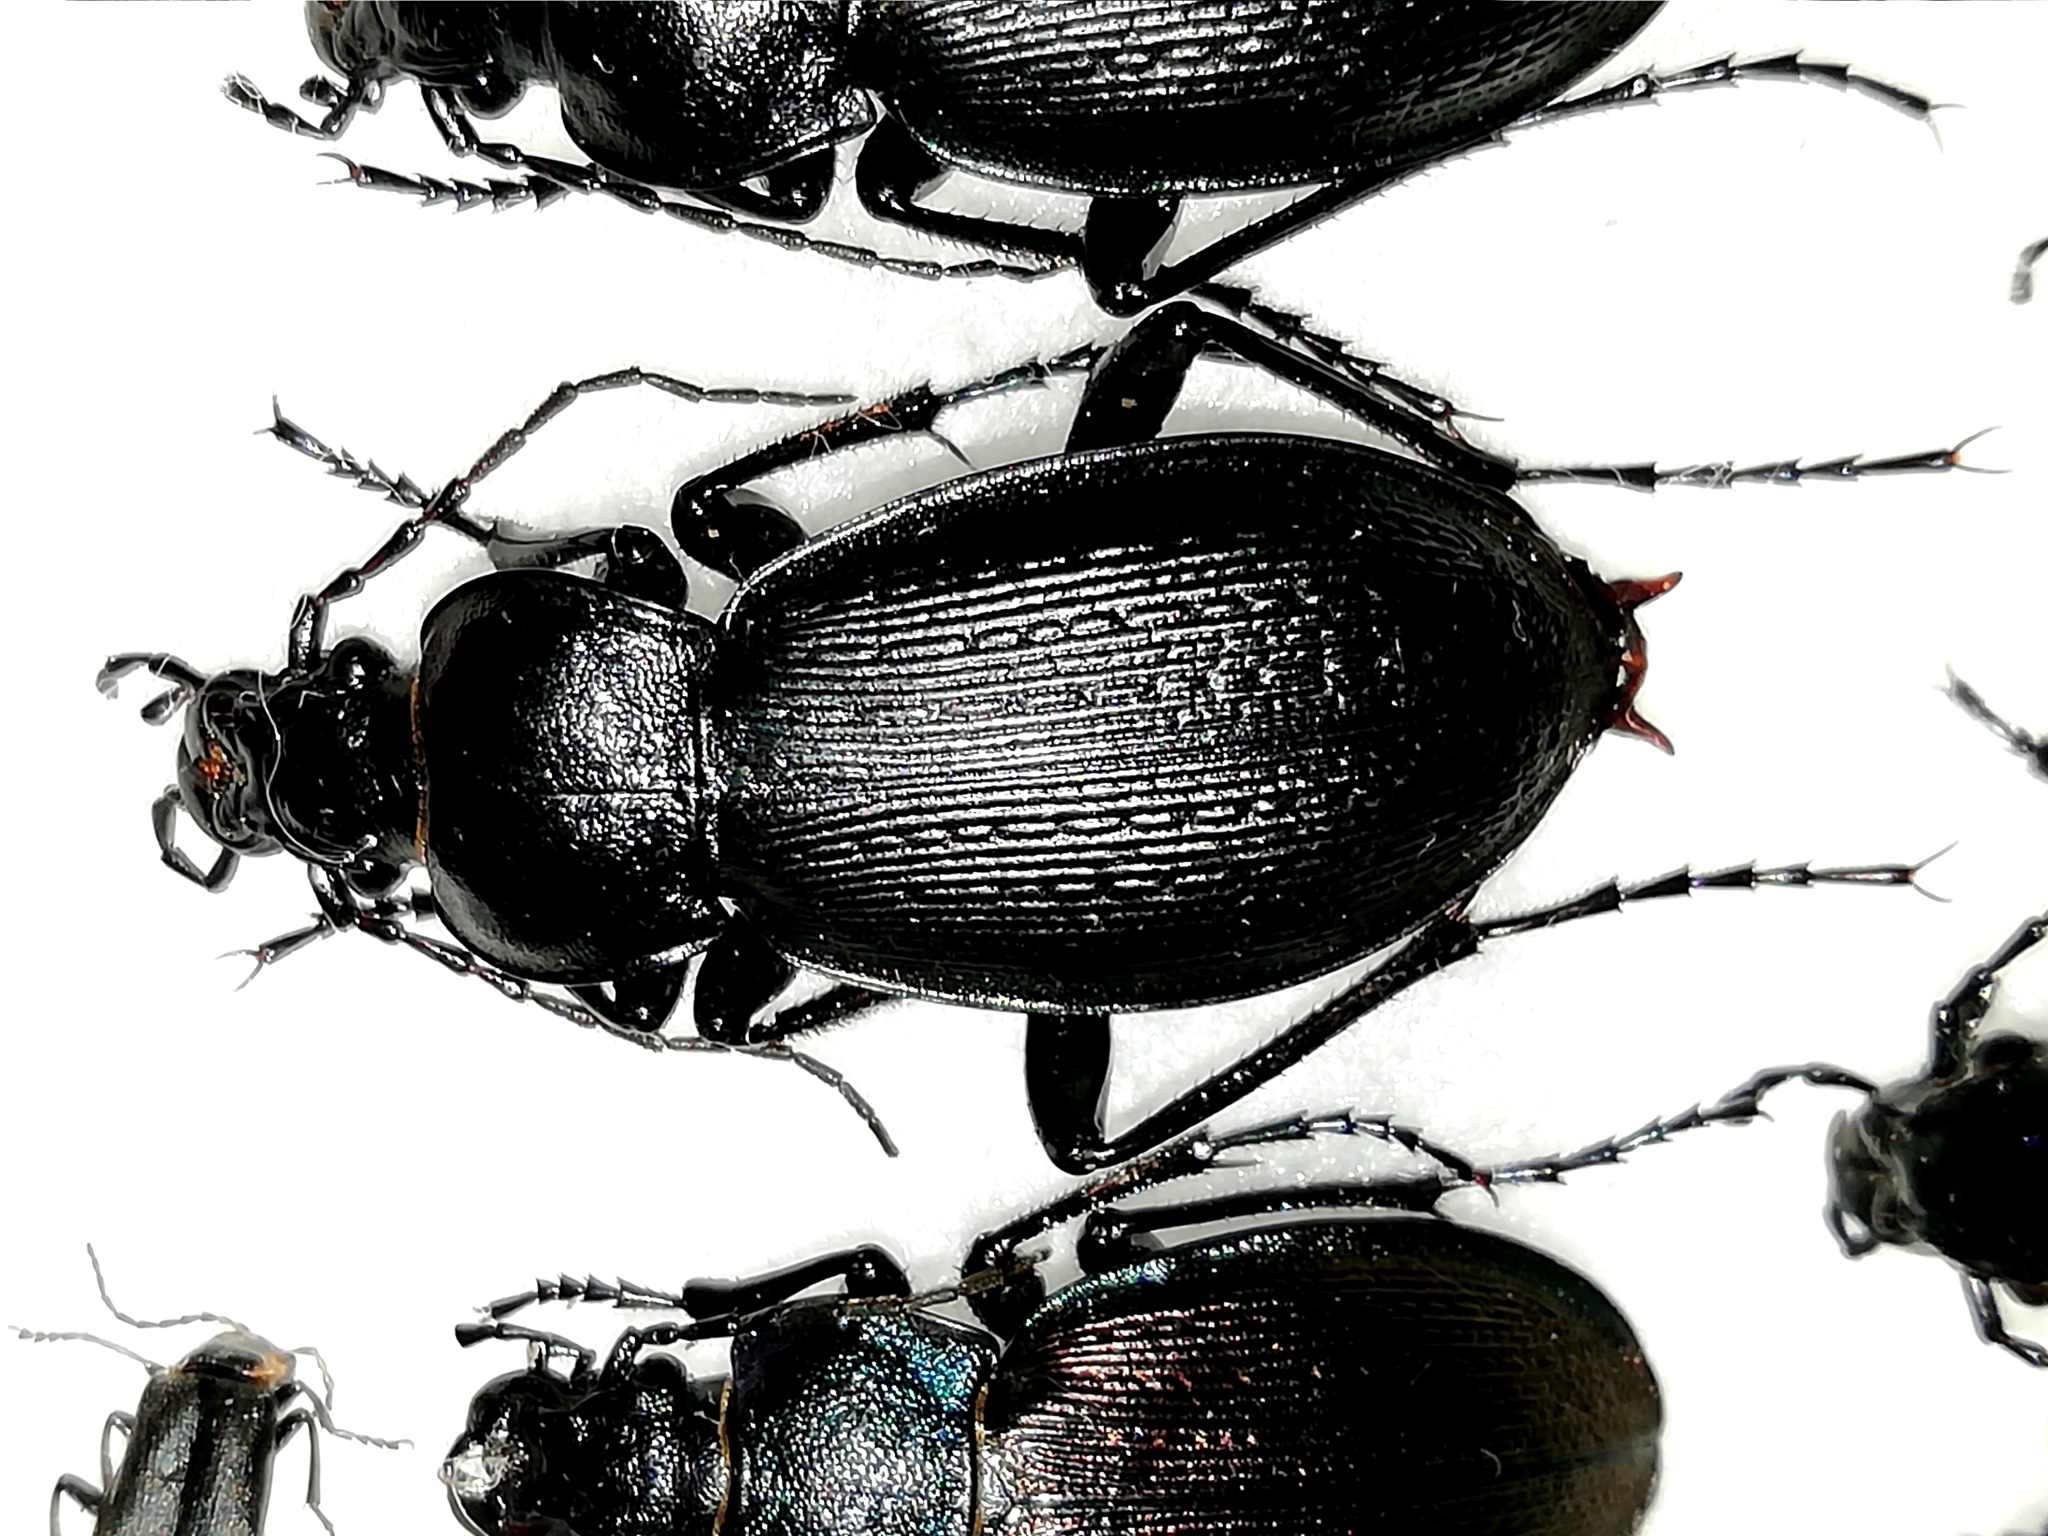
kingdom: Animalia
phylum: Arthropoda
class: Insecta
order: Coleoptera
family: Carabidae
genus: Carabus
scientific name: Carabus spasskianus
